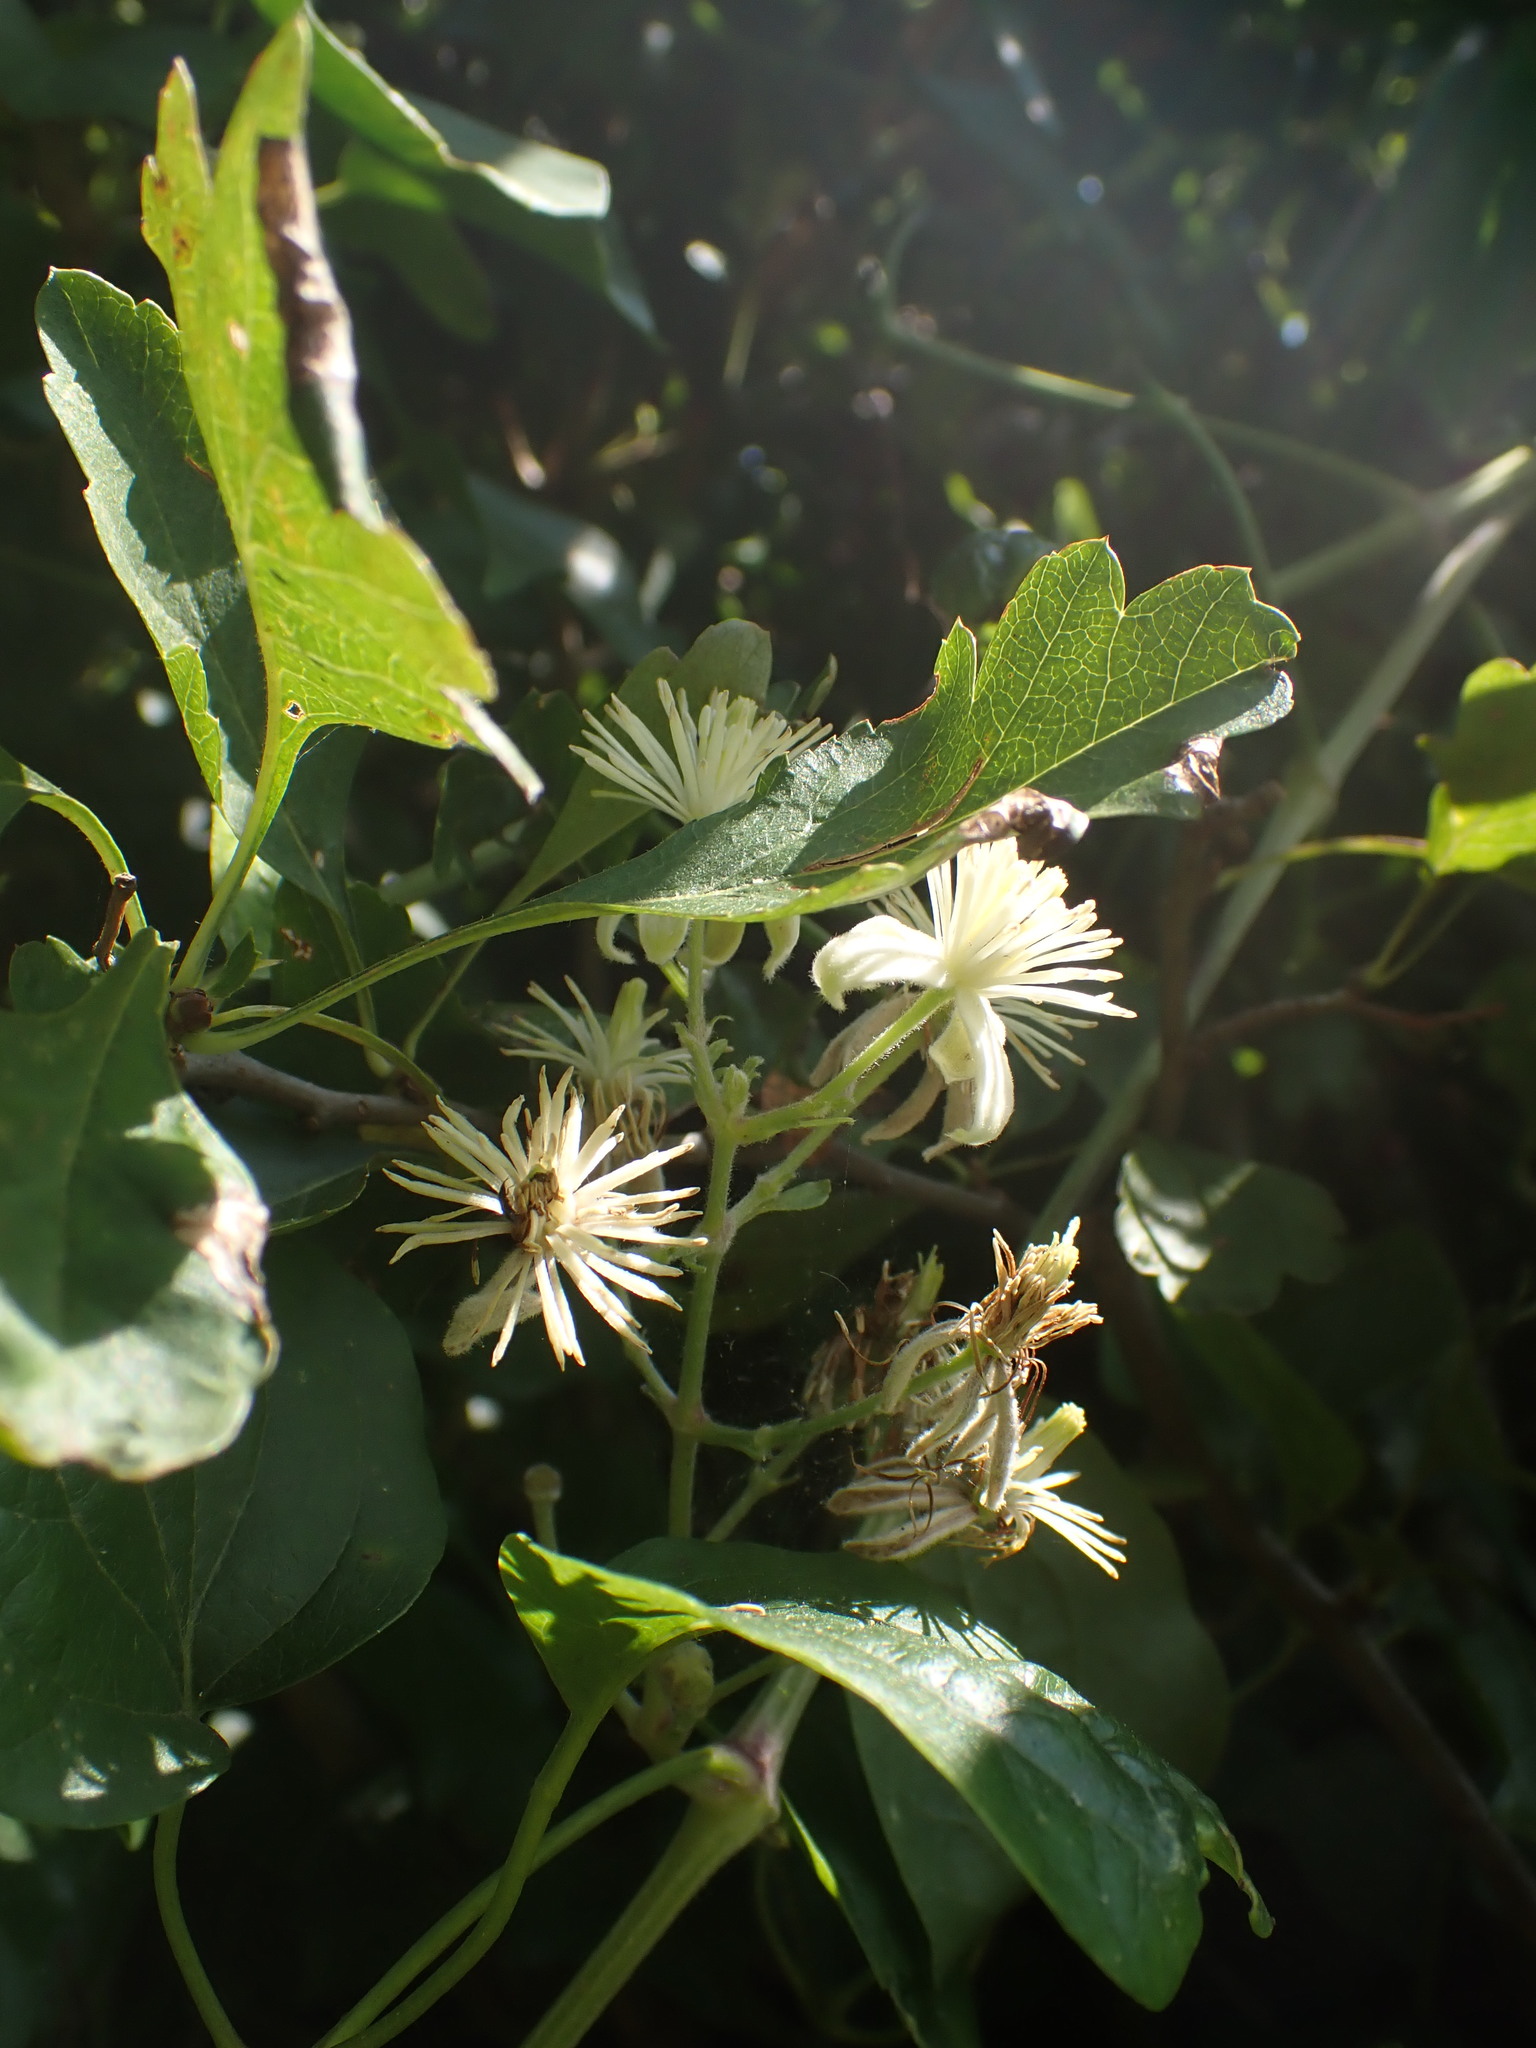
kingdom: Plantae
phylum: Tracheophyta
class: Magnoliopsida
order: Ranunculales
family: Ranunculaceae
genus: Clematis
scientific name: Clematis vitalba
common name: Evergreen clematis
